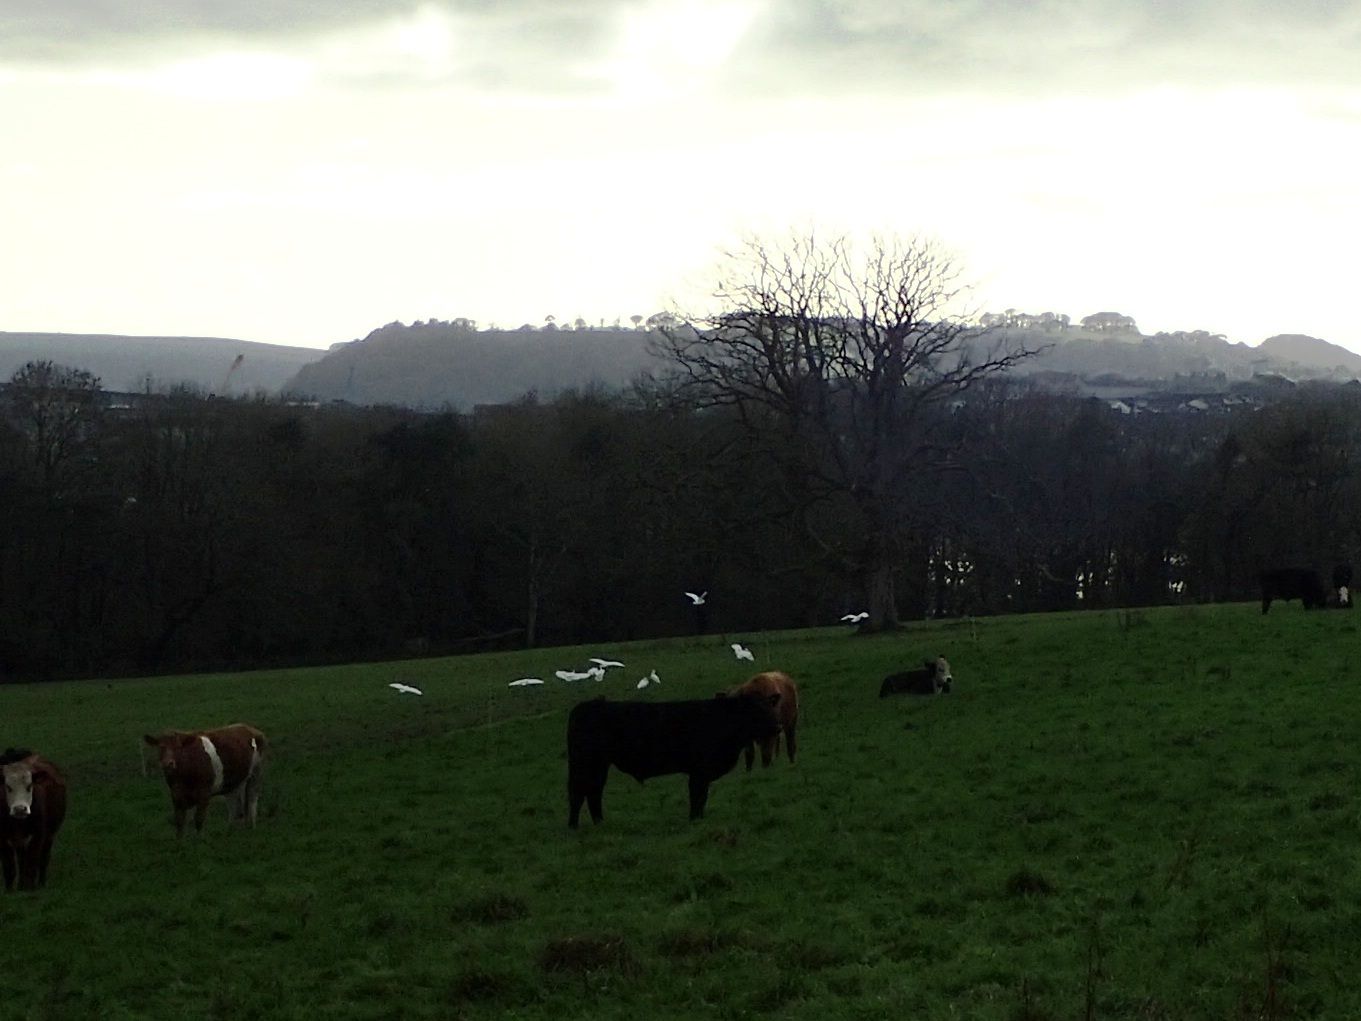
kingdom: Animalia
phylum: Chordata
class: Aves
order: Pelecaniformes
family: Ardeidae
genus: Bubulcus
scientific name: Bubulcus ibis
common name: Cattle egret
